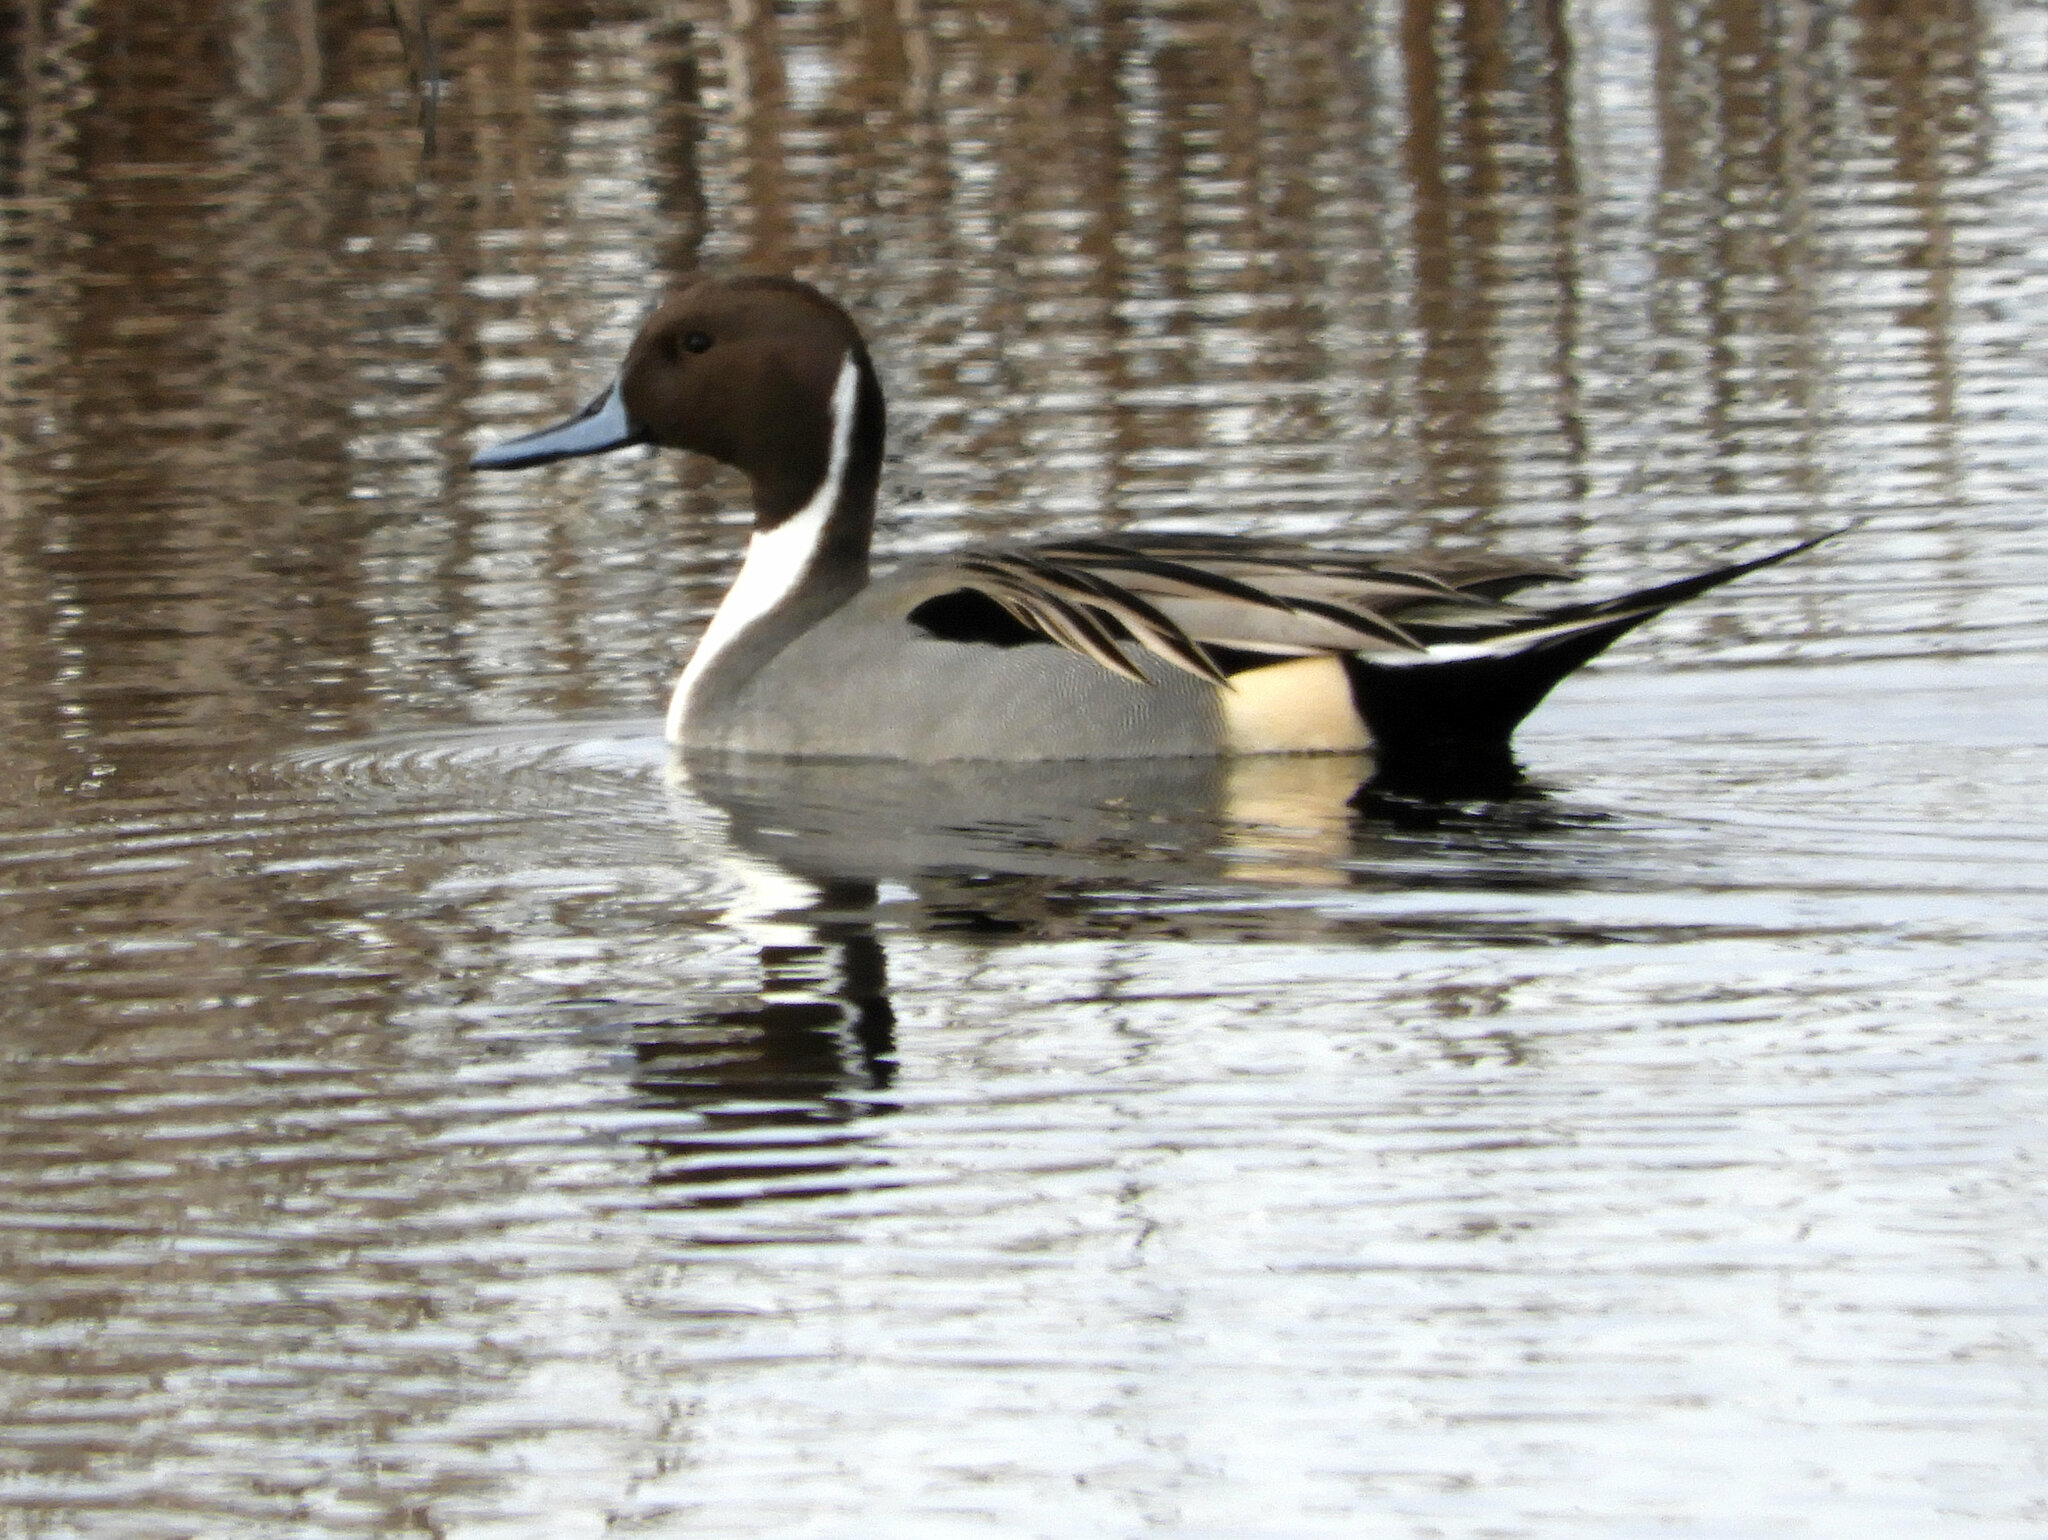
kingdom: Animalia
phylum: Chordata
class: Aves
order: Anseriformes
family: Anatidae
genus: Anas
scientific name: Anas acuta
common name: Northern pintail
